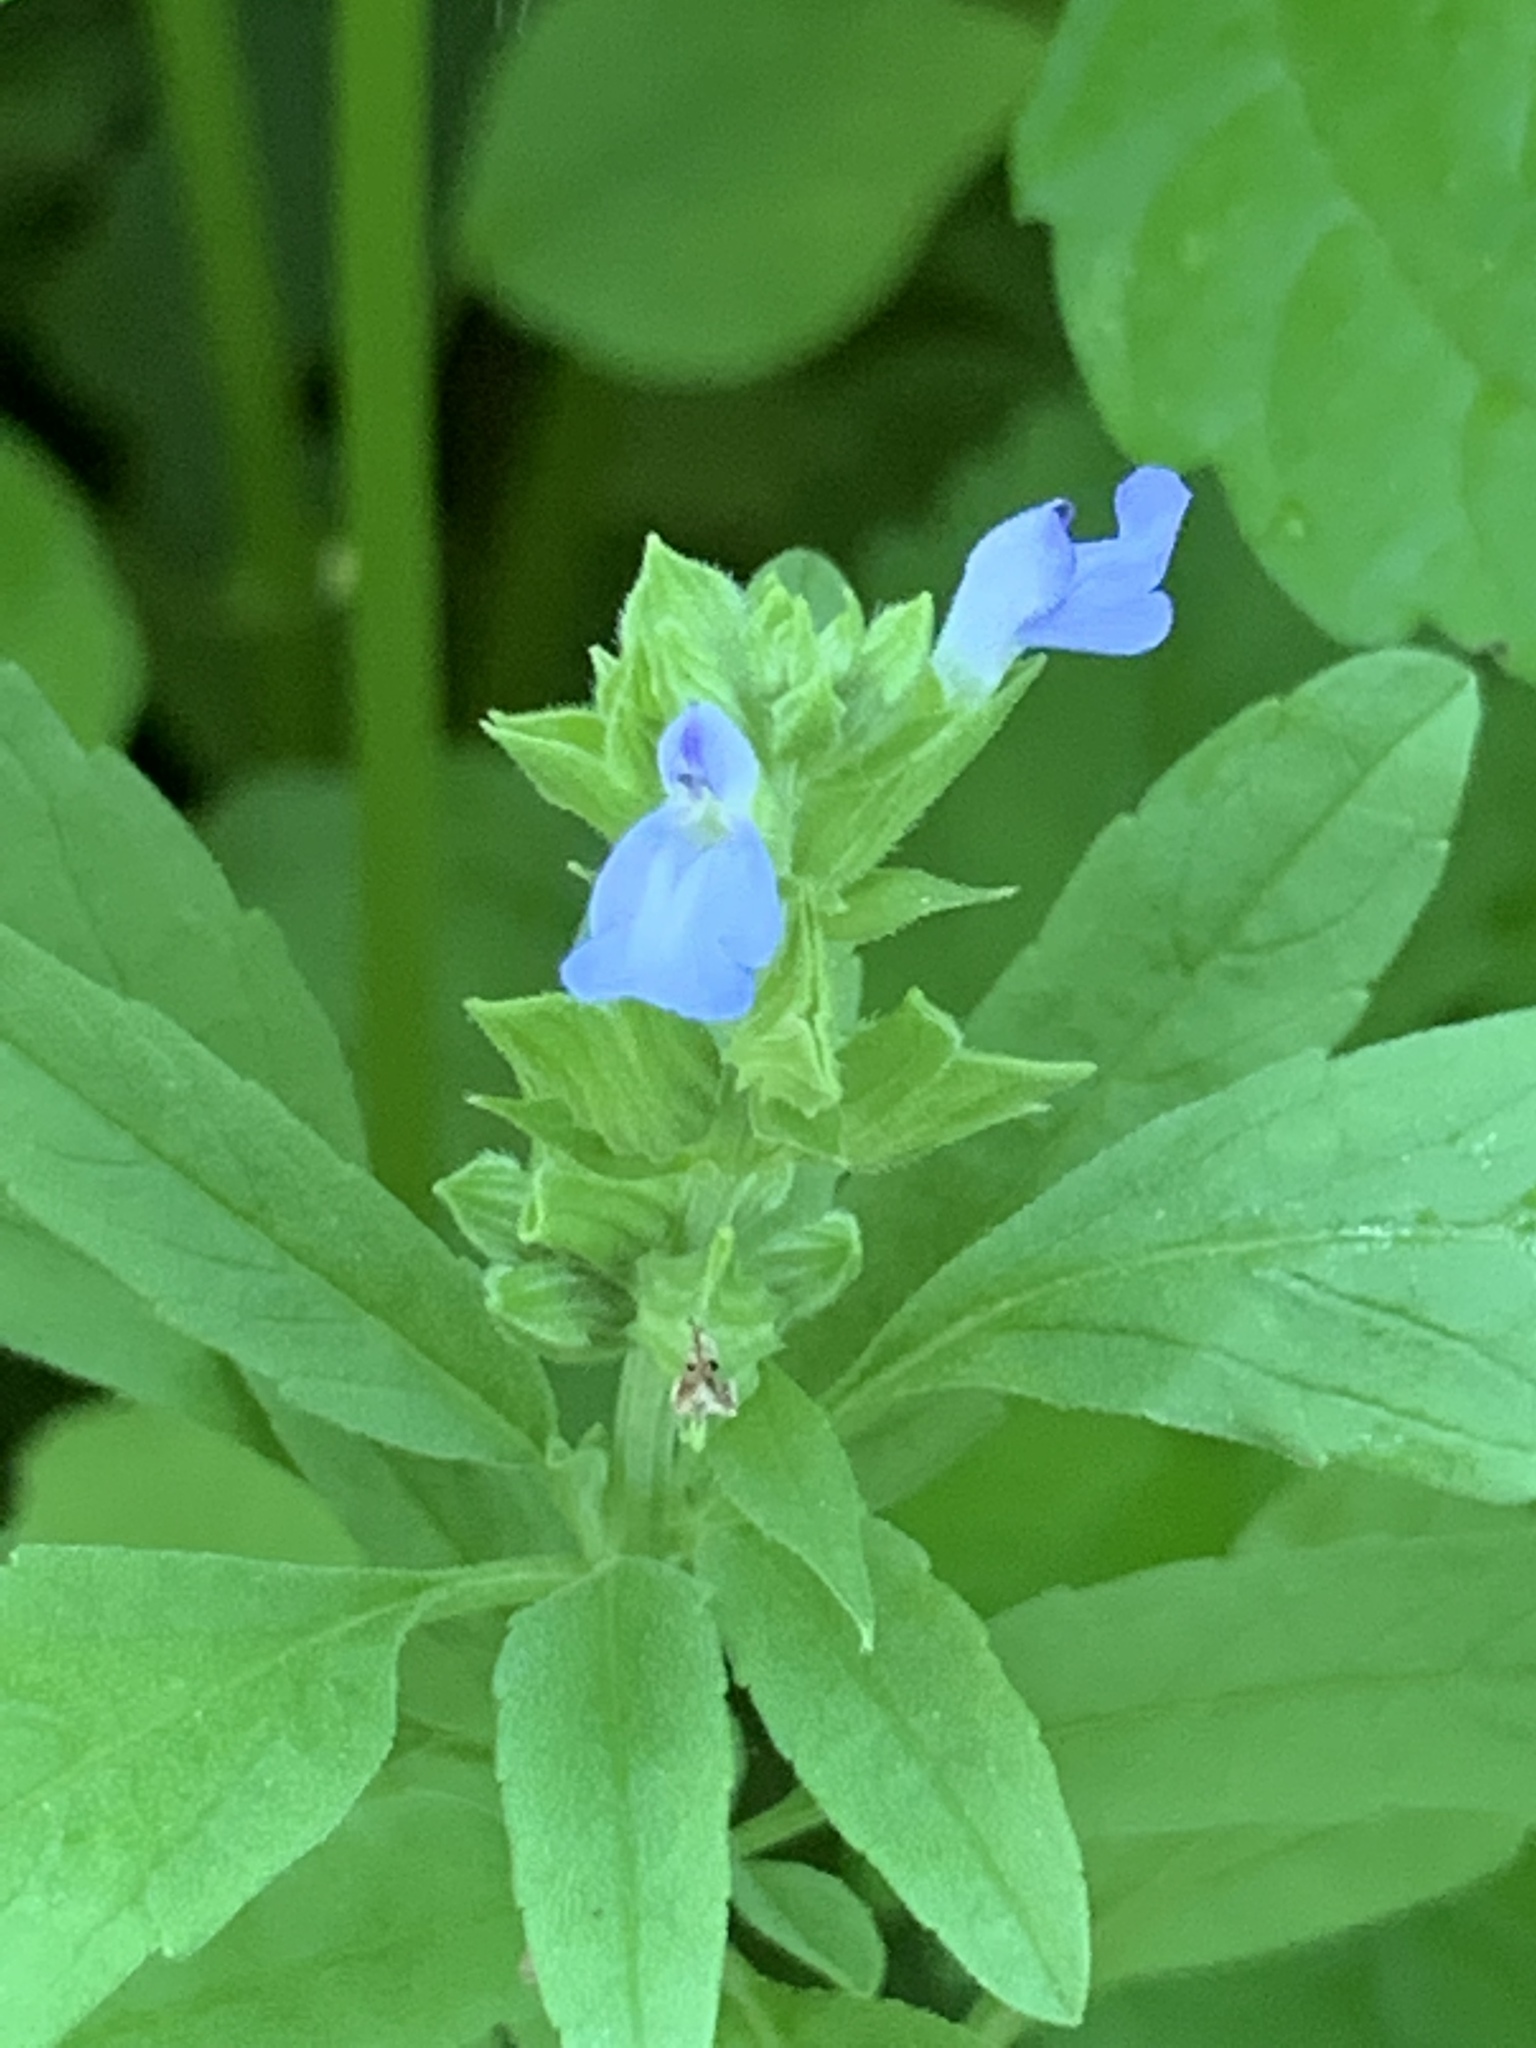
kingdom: Plantae
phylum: Tracheophyta
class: Magnoliopsida
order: Lamiales
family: Lamiaceae
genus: Salvia
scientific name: Salvia reflexa
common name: Mintweed
